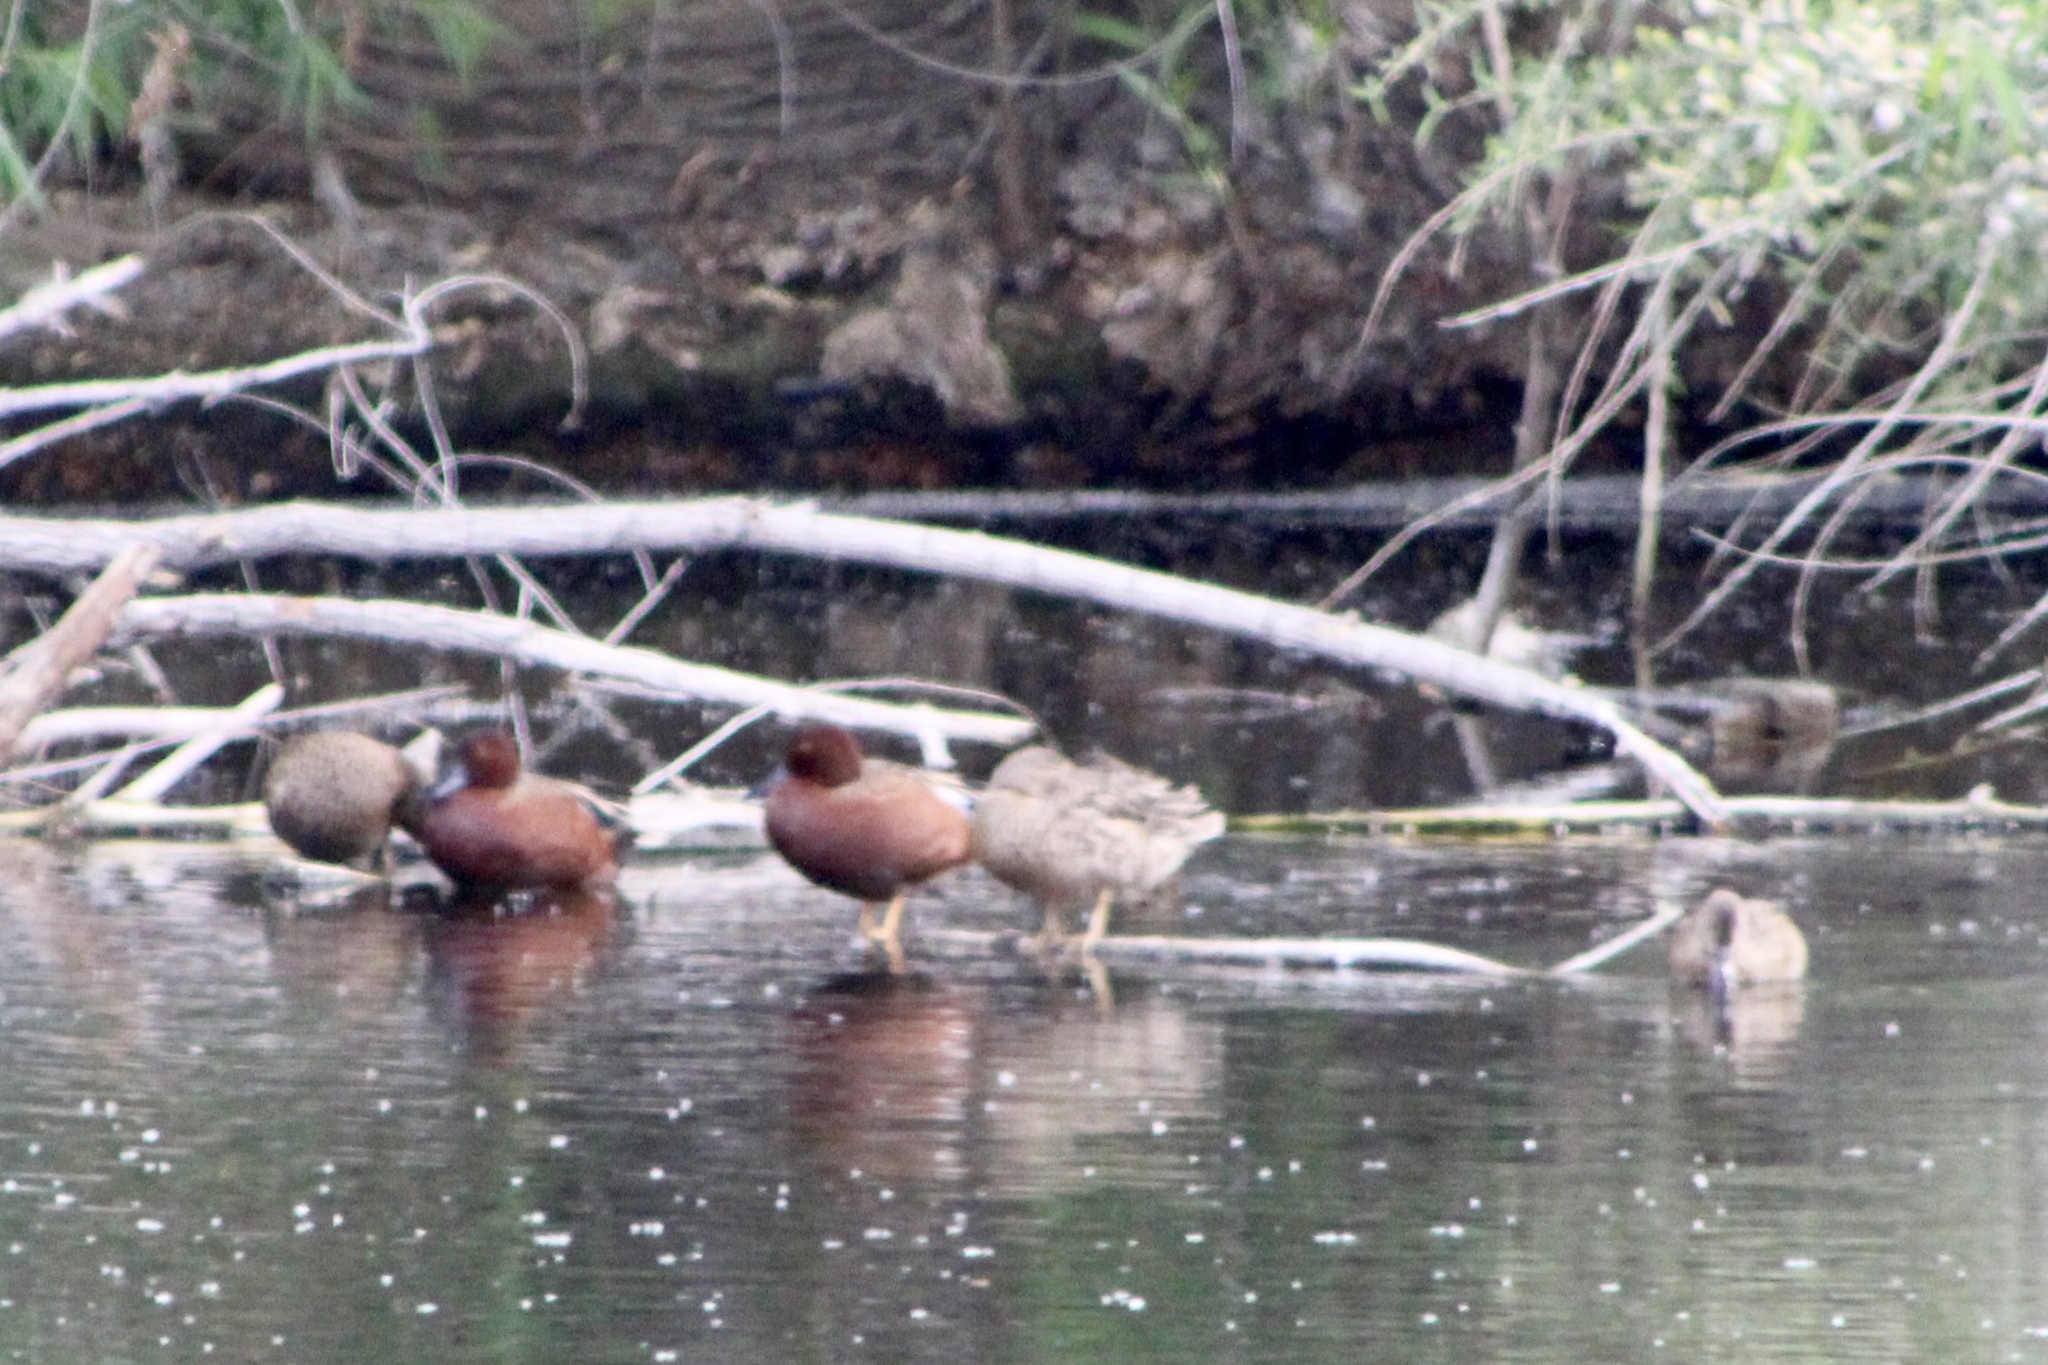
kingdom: Animalia
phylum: Chordata
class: Aves
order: Anseriformes
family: Anatidae
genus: Spatula
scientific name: Spatula cyanoptera
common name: Cinnamon teal
